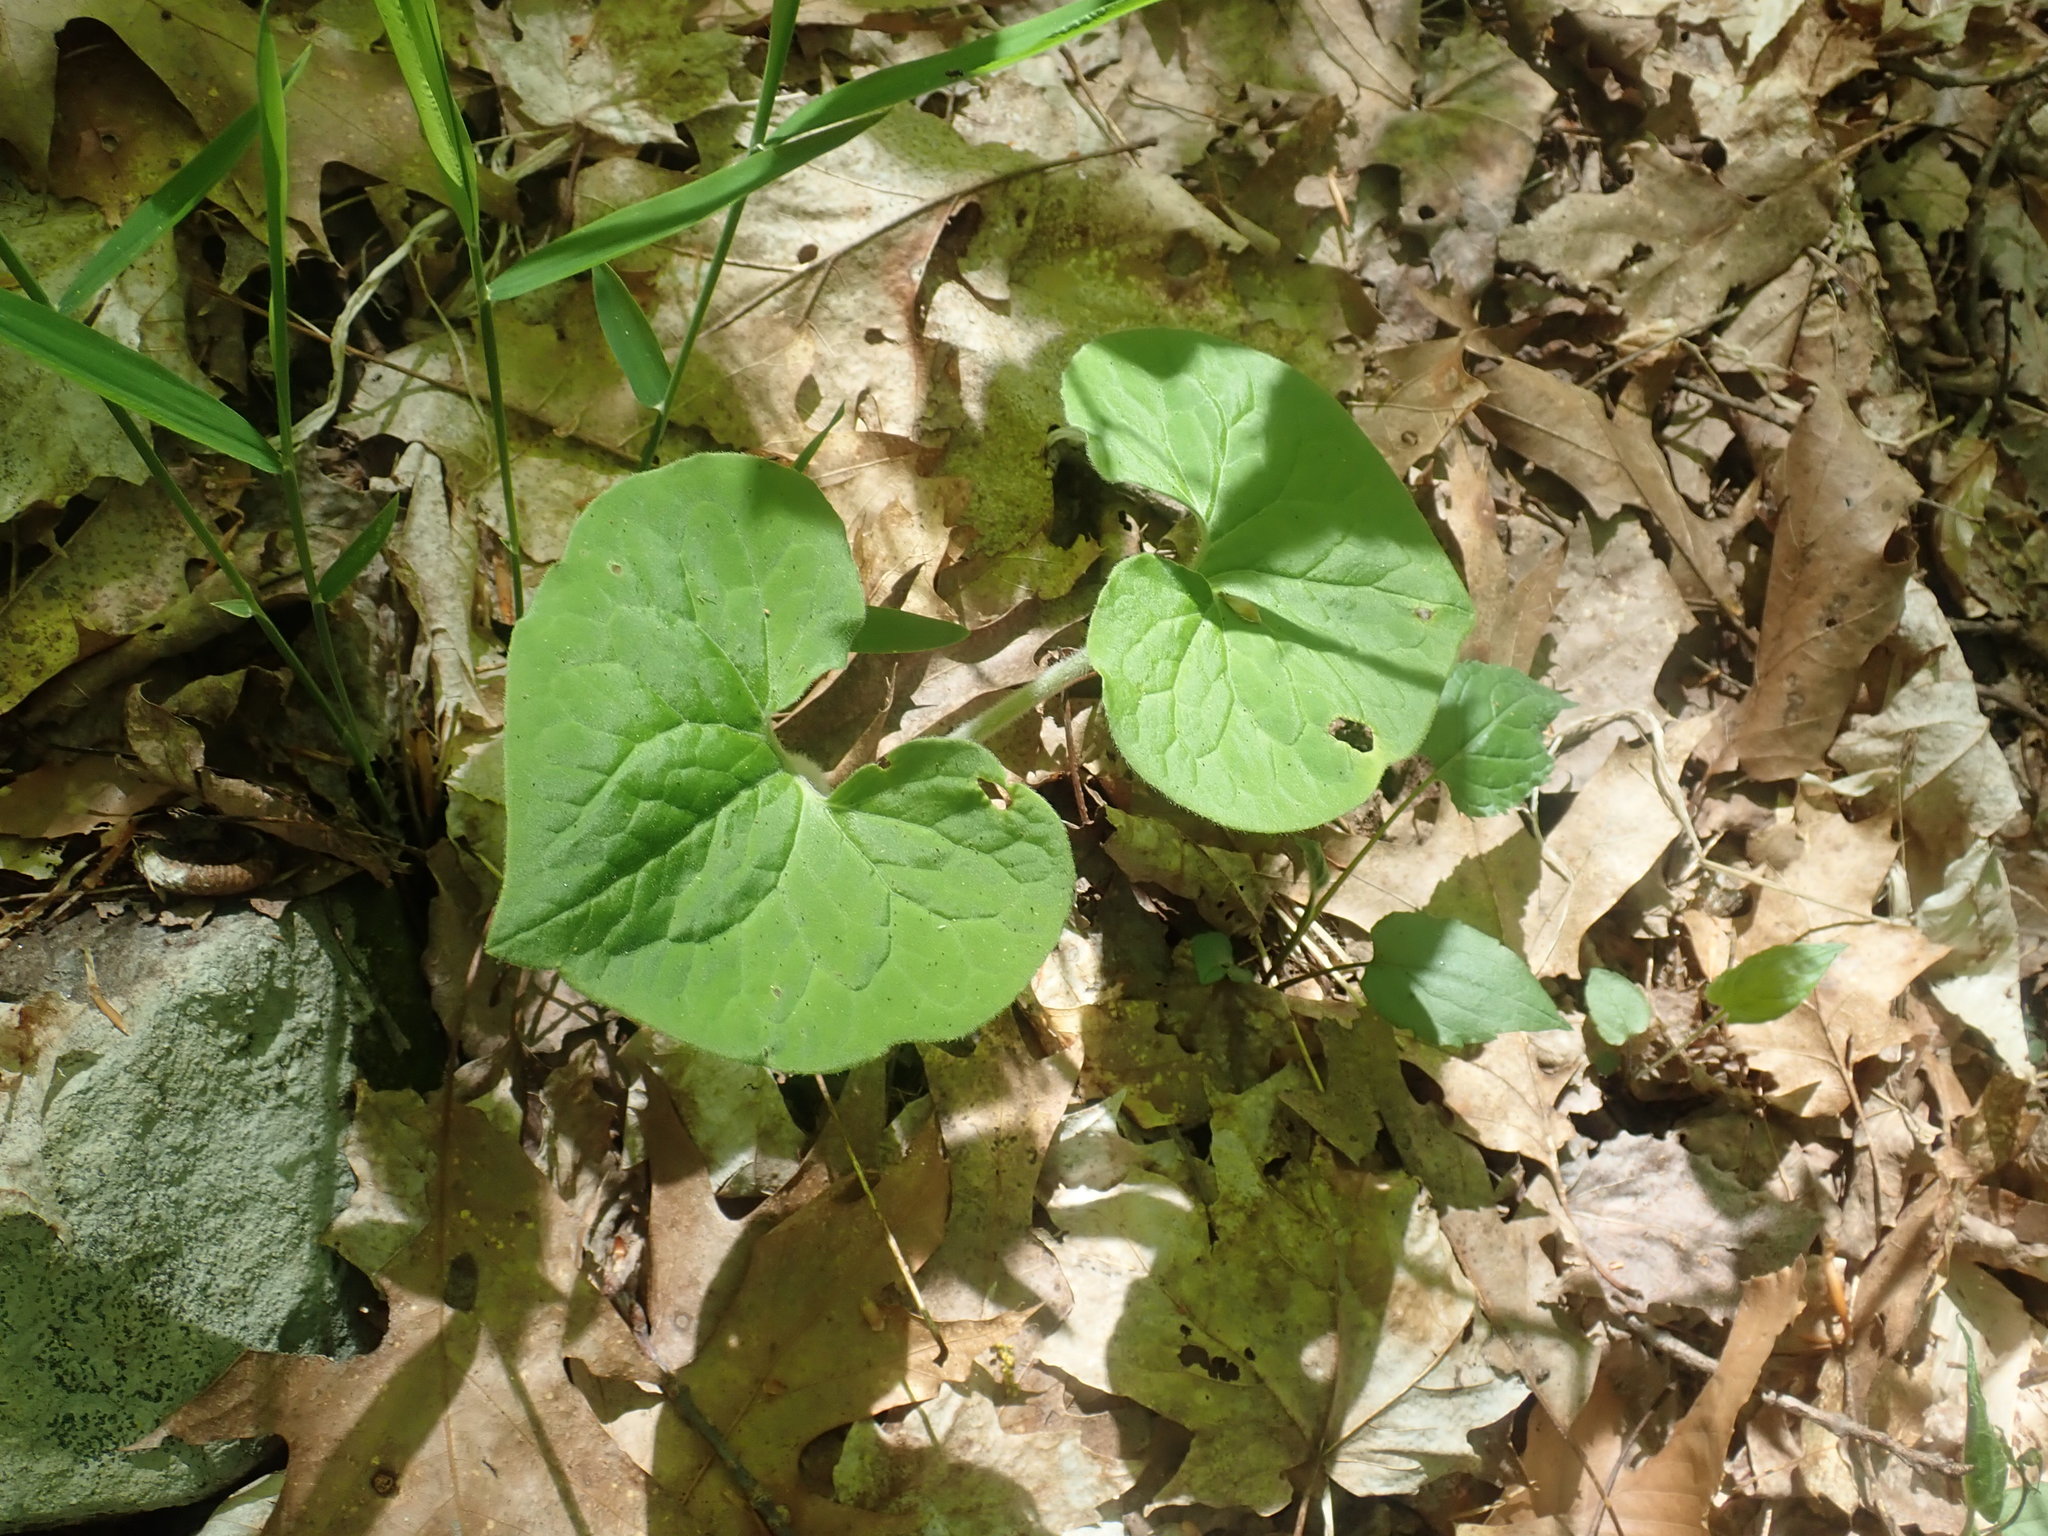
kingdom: Plantae
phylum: Tracheophyta
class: Magnoliopsida
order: Piperales
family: Aristolochiaceae
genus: Asarum
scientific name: Asarum canadense
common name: Wild ginger
